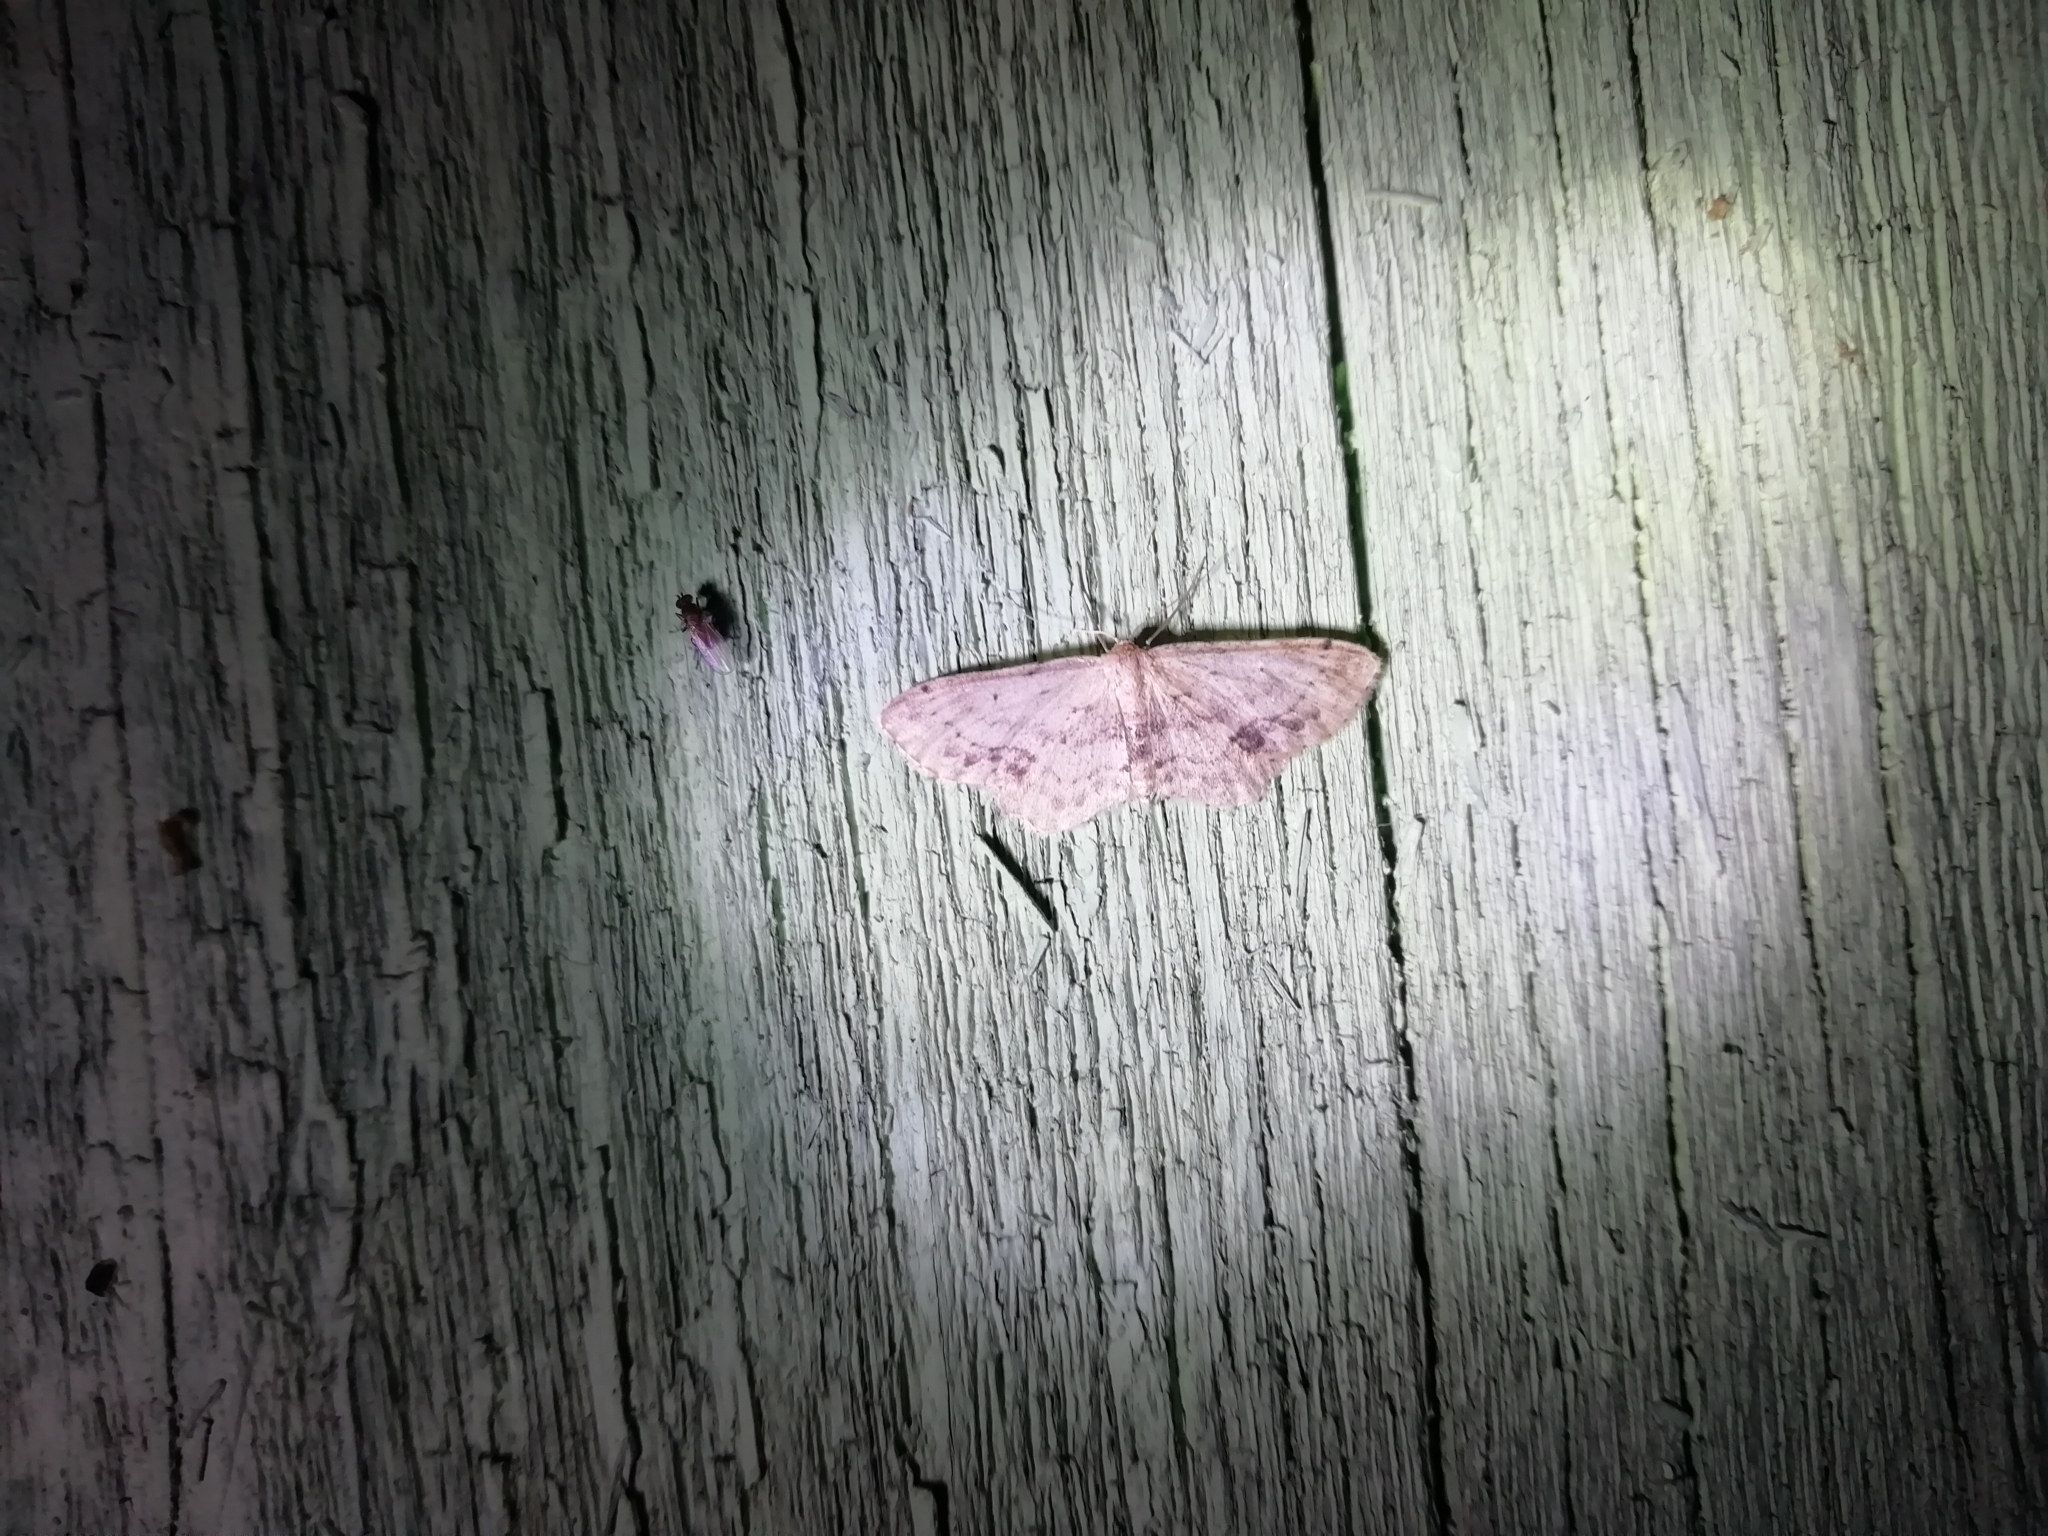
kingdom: Animalia
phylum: Arthropoda
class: Insecta
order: Lepidoptera
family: Geometridae
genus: Idaea
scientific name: Idaea dimidiata
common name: Single-dotted wave
